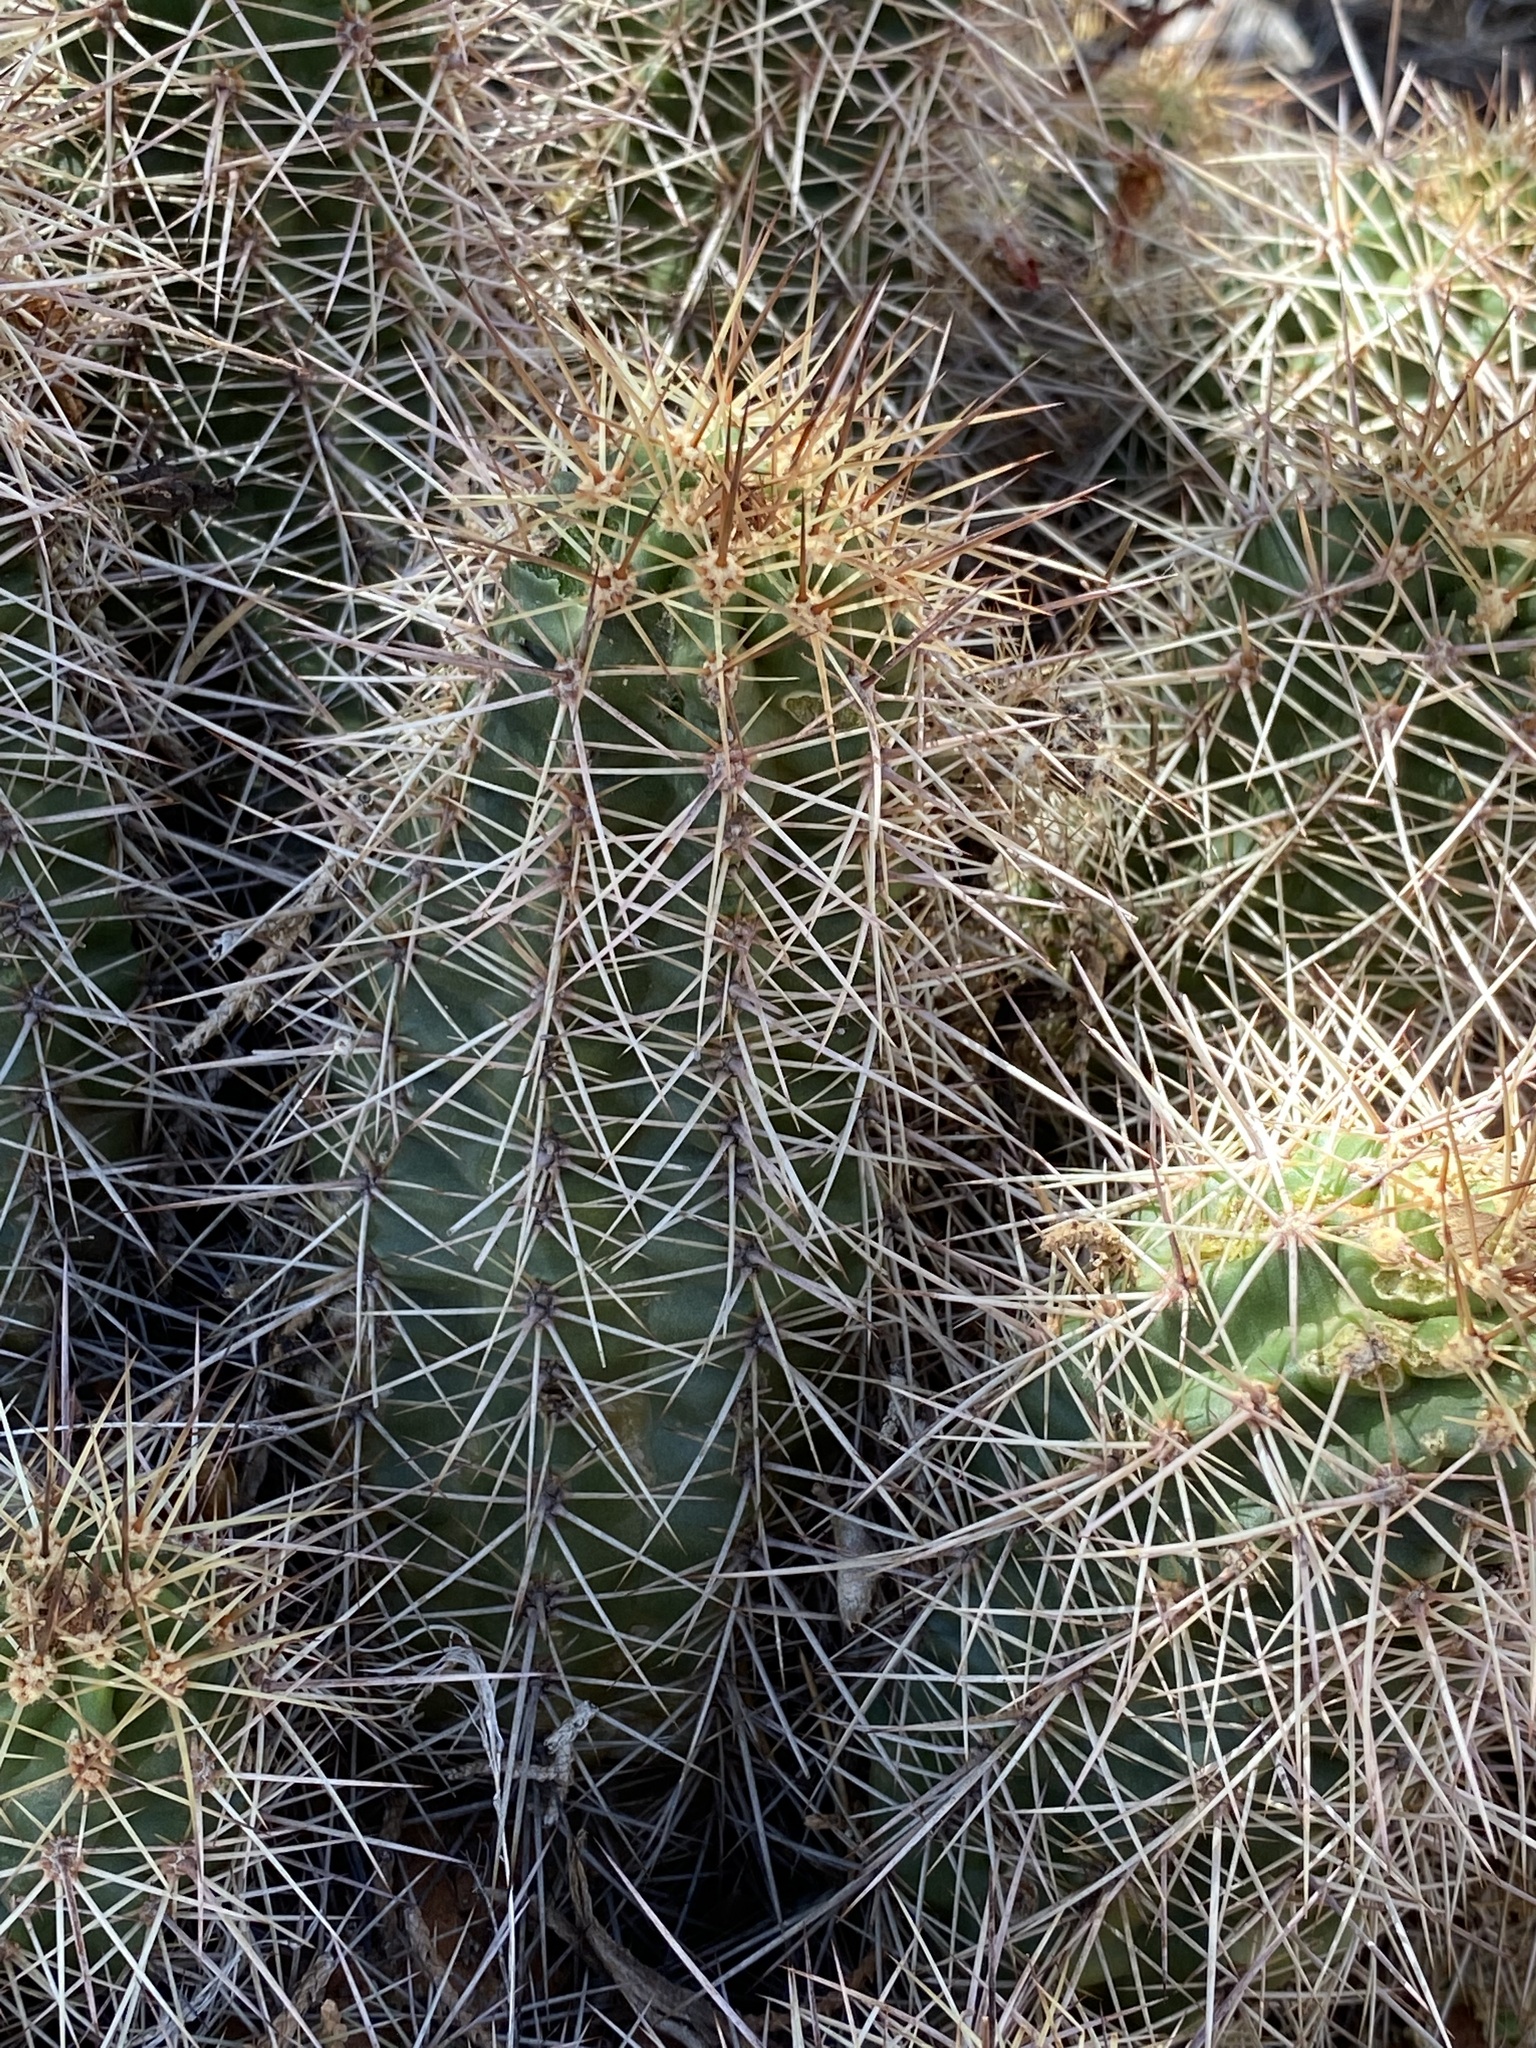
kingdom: Plantae
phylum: Tracheophyta
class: Magnoliopsida
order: Caryophyllales
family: Cactaceae
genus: Echinocereus
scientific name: Echinocereus bakeri
